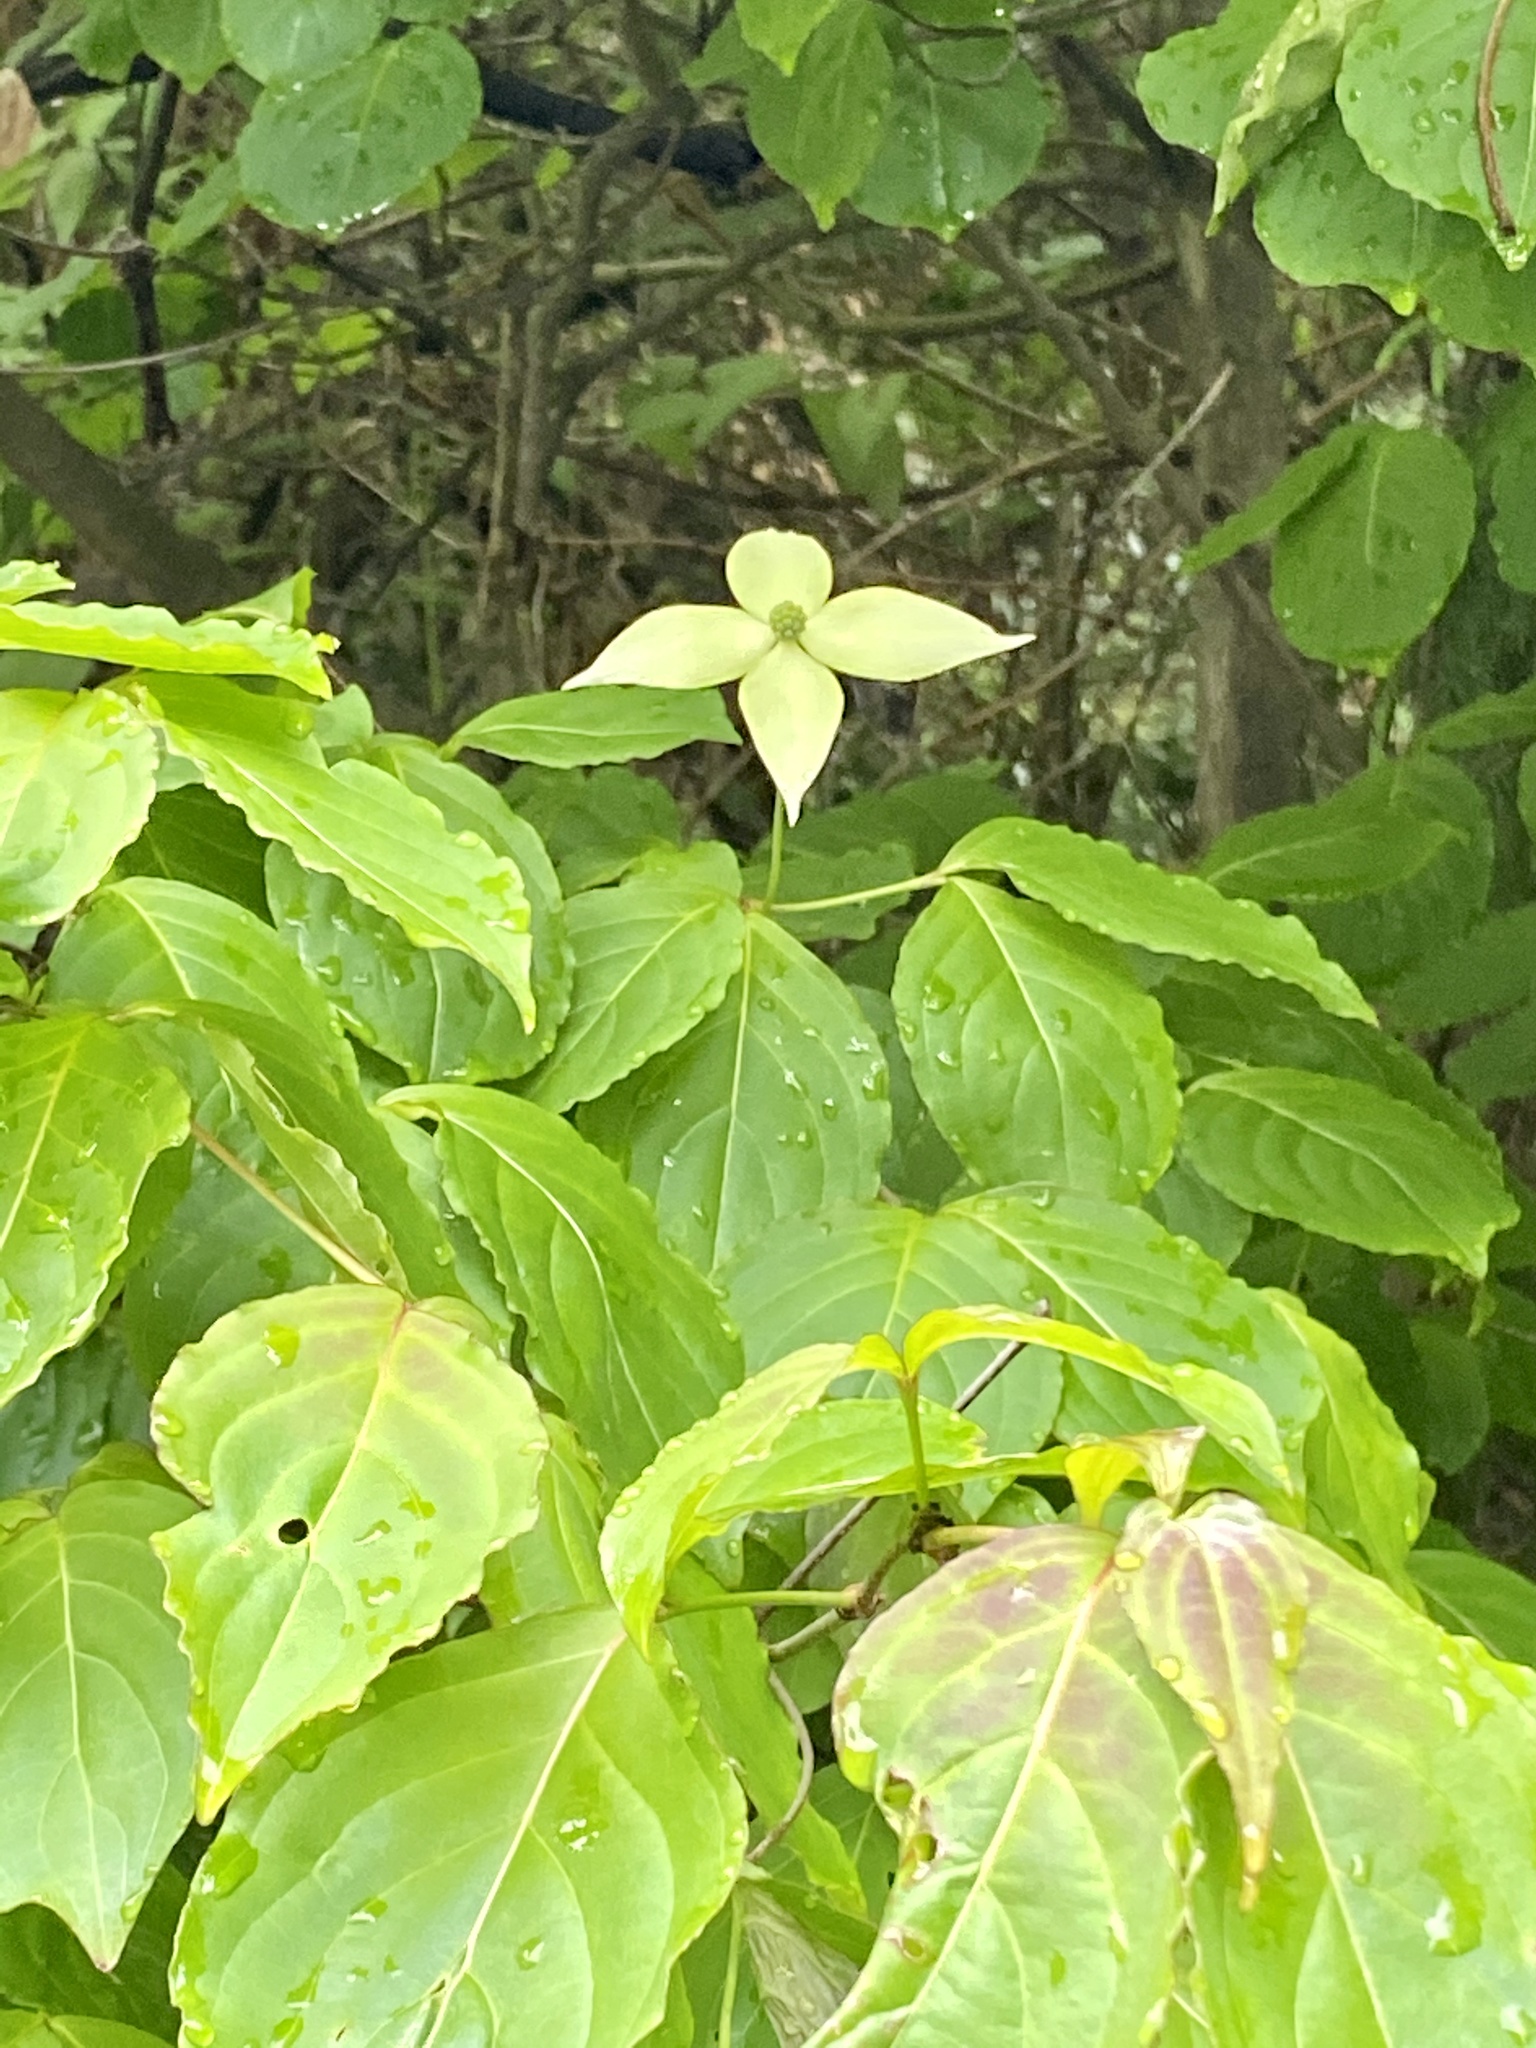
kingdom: Plantae
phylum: Tracheophyta
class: Magnoliopsida
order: Cornales
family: Cornaceae
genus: Cornus
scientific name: Cornus kousa
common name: Japanese dogwood
